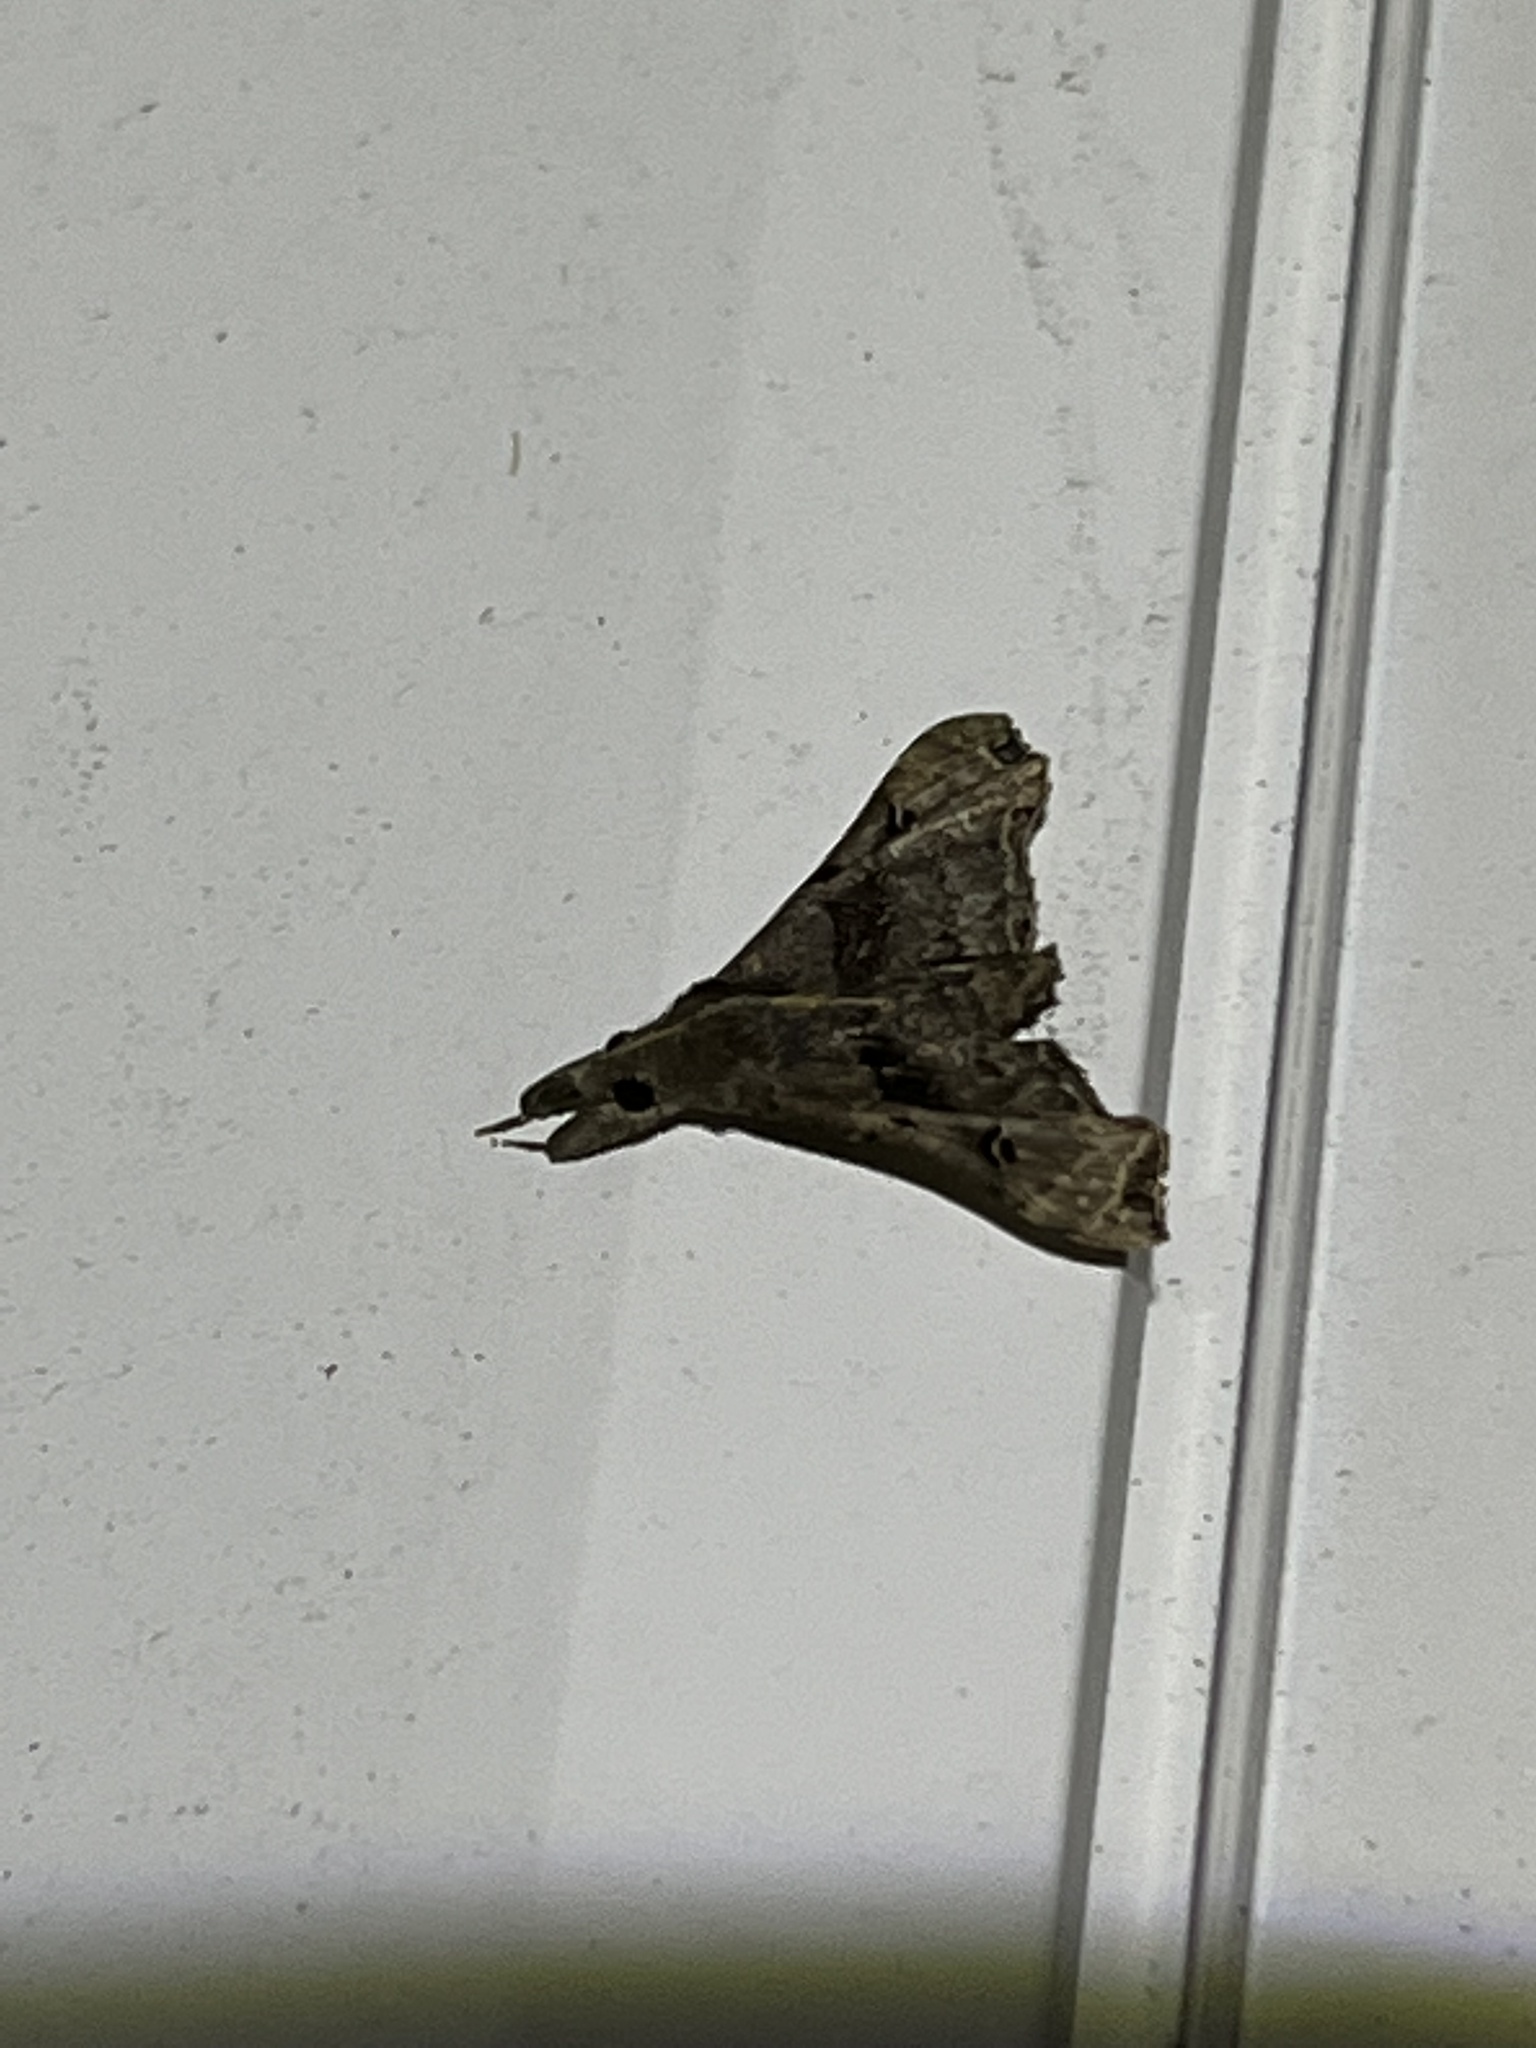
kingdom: Animalia
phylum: Arthropoda
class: Insecta
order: Lepidoptera
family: Erebidae
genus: Palthis
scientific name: Palthis asopialis
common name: Faint-spotted palthis moth
